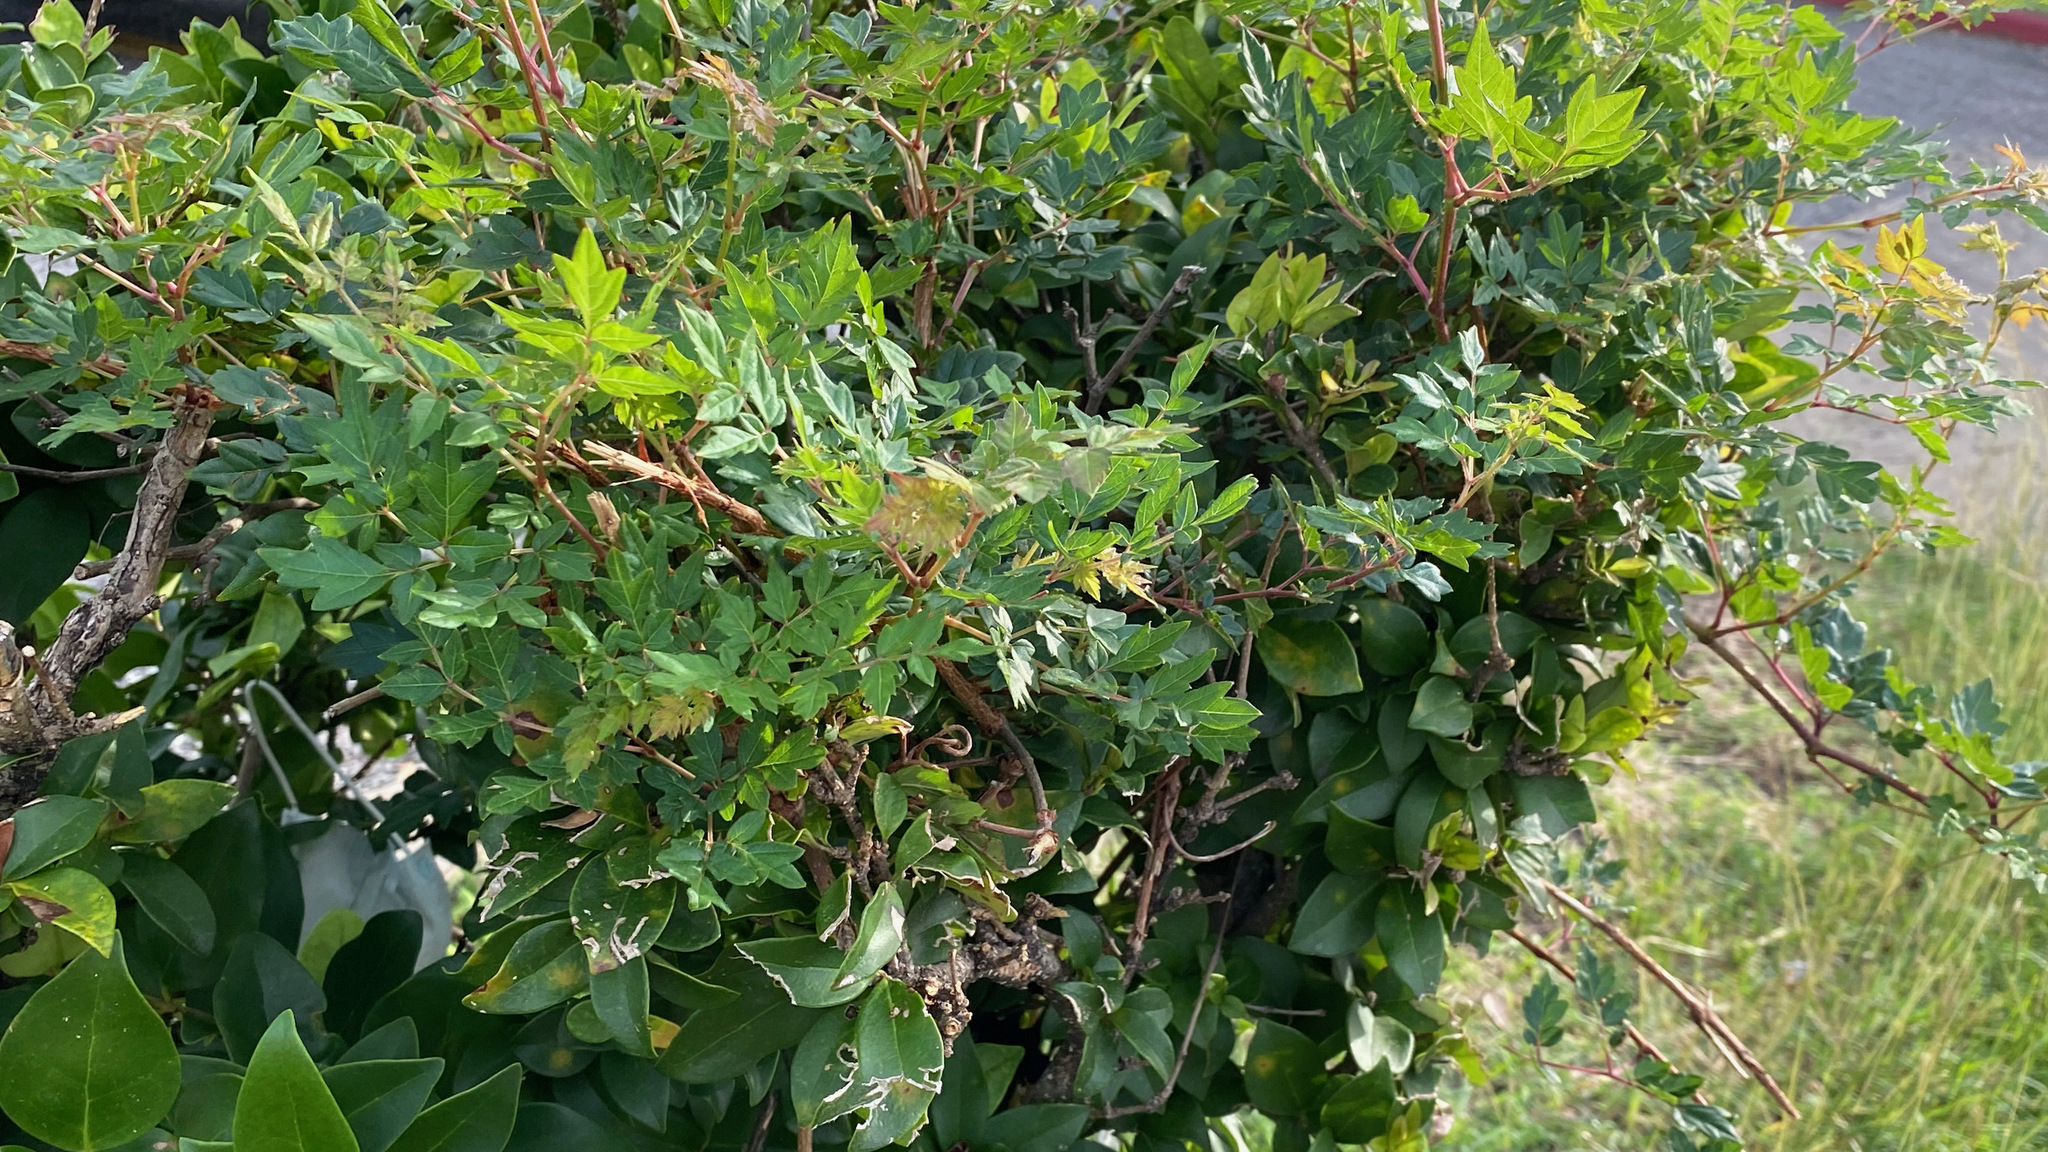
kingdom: Plantae
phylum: Tracheophyta
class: Magnoliopsida
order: Vitales
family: Vitaceae
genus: Nekemias
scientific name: Nekemias arborea
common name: Peppervine
